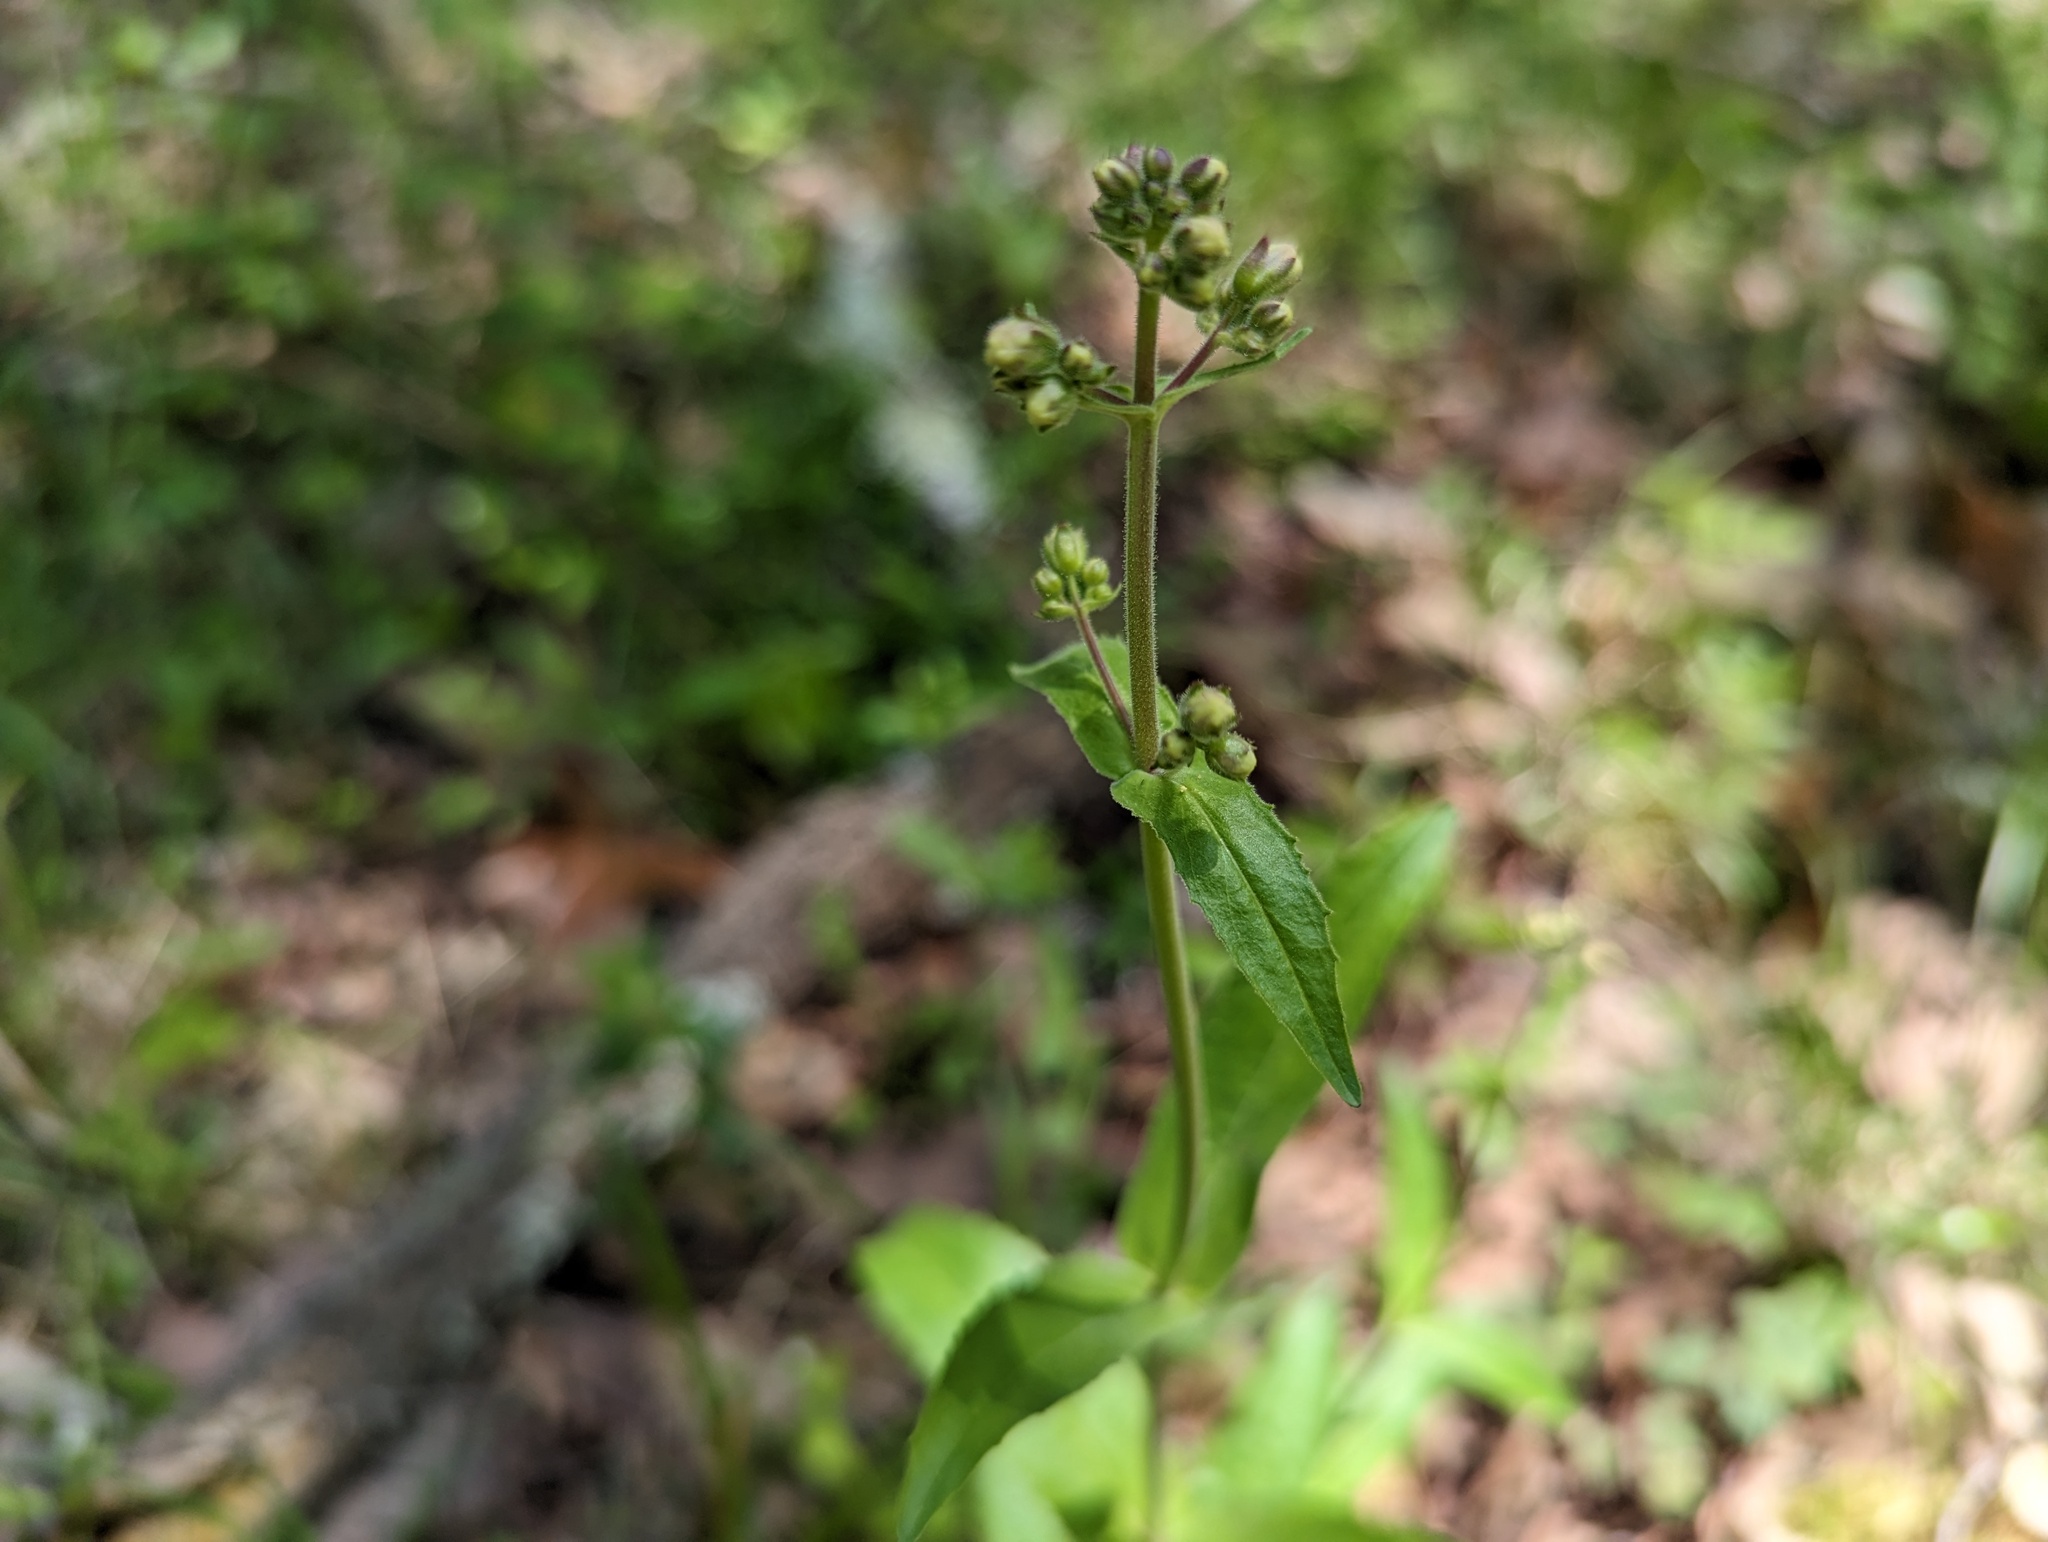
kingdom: Plantae
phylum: Tracheophyta
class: Magnoliopsida
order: Lamiales
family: Plantaginaceae
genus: Penstemon
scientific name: Penstemon pallidus
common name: Pale beardtongue
